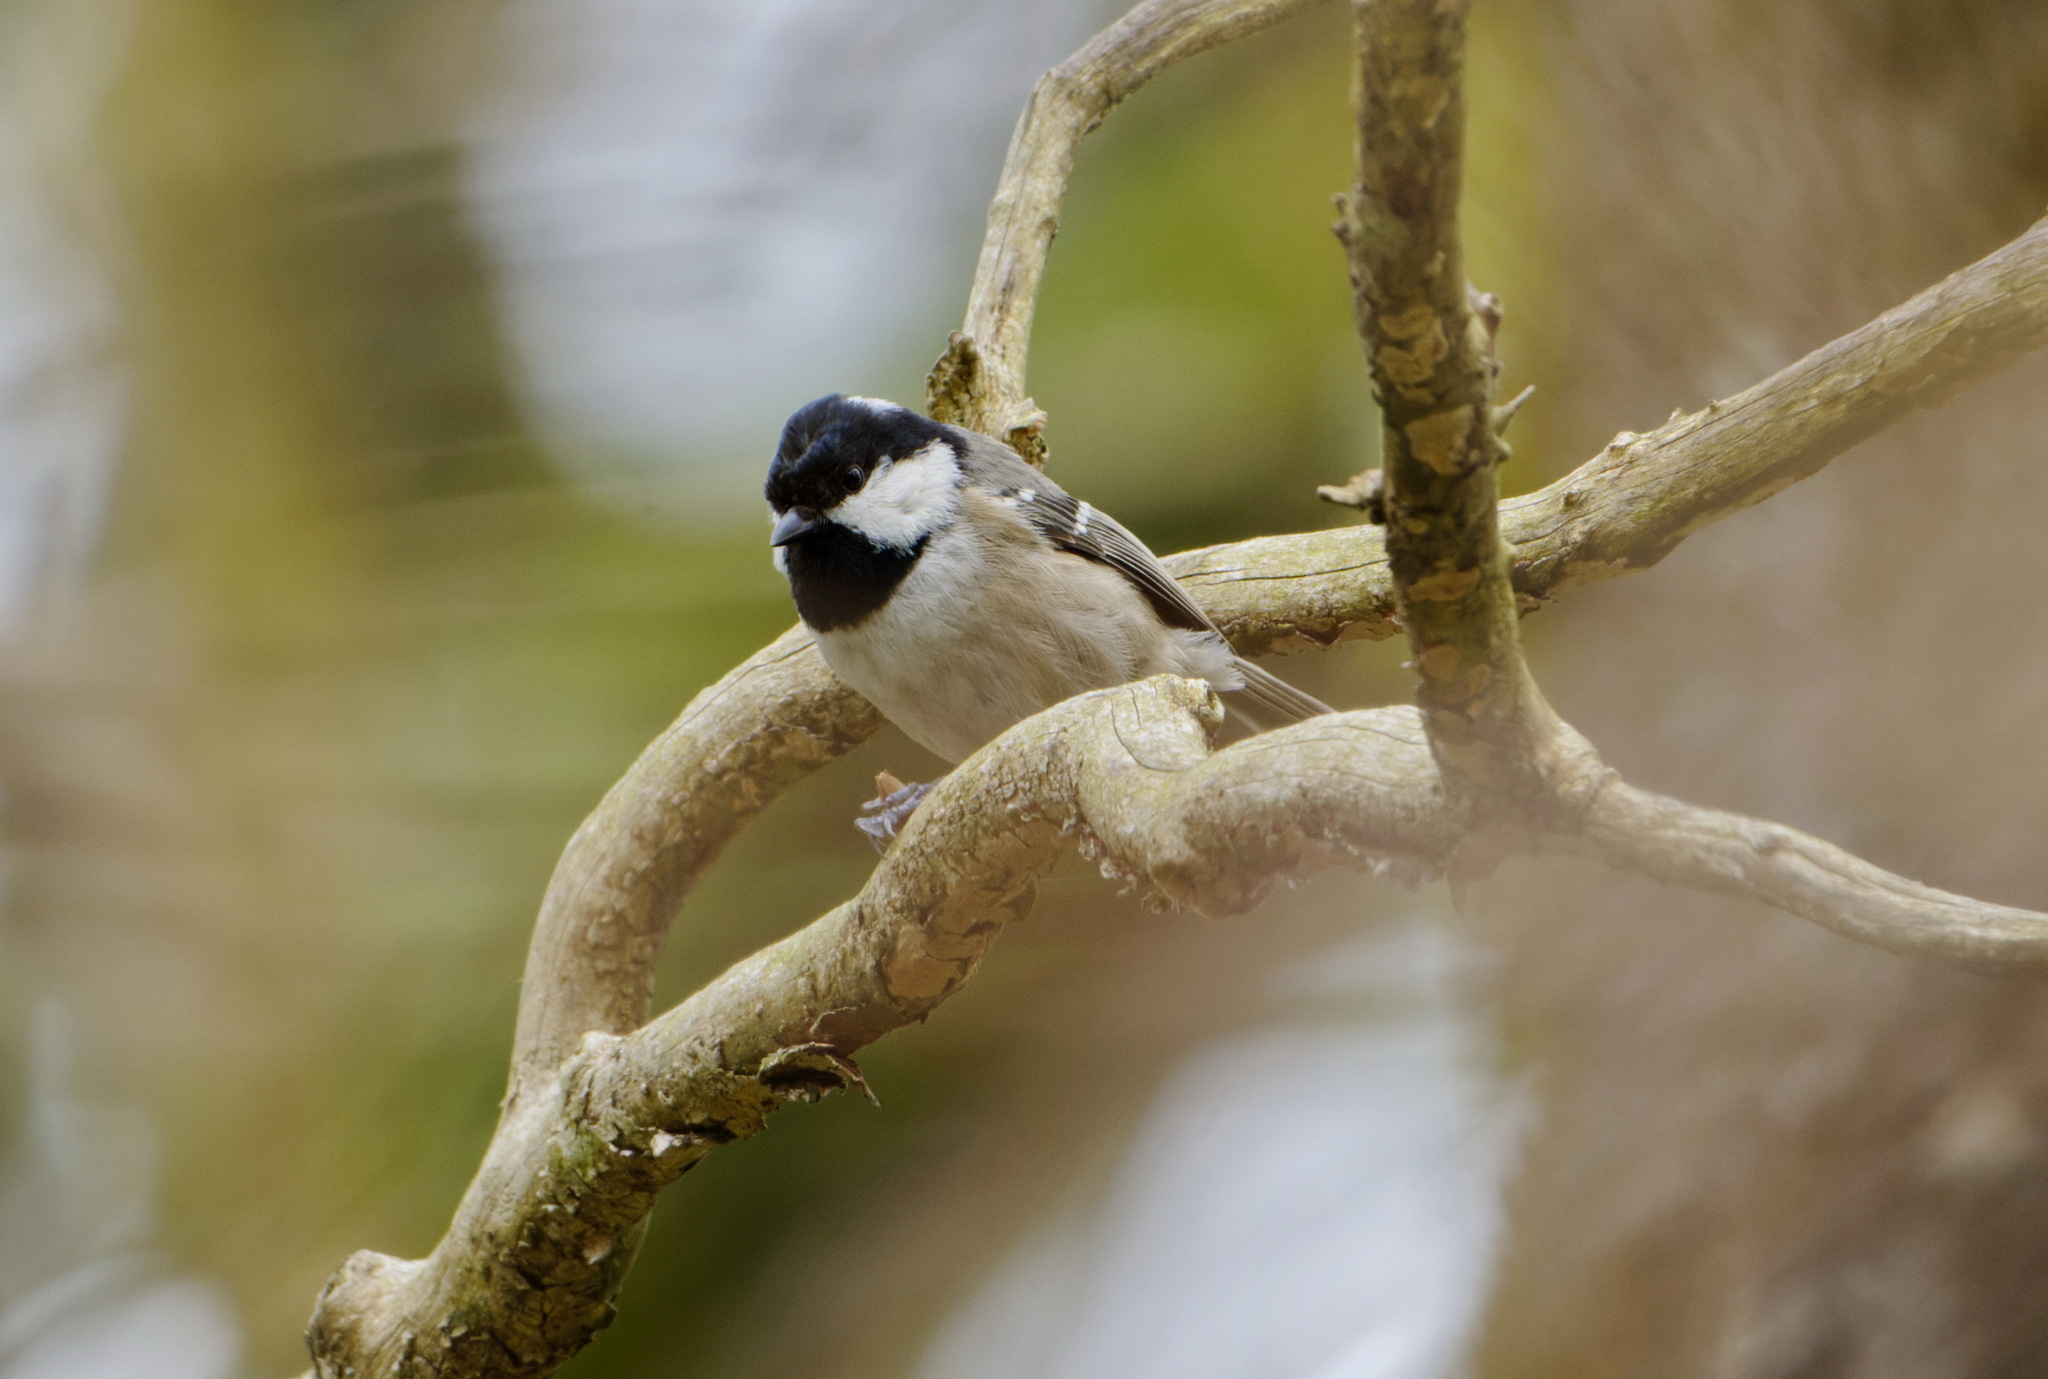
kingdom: Animalia
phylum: Chordata
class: Aves
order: Passeriformes
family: Paridae
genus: Periparus
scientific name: Periparus ater
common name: Coal tit
